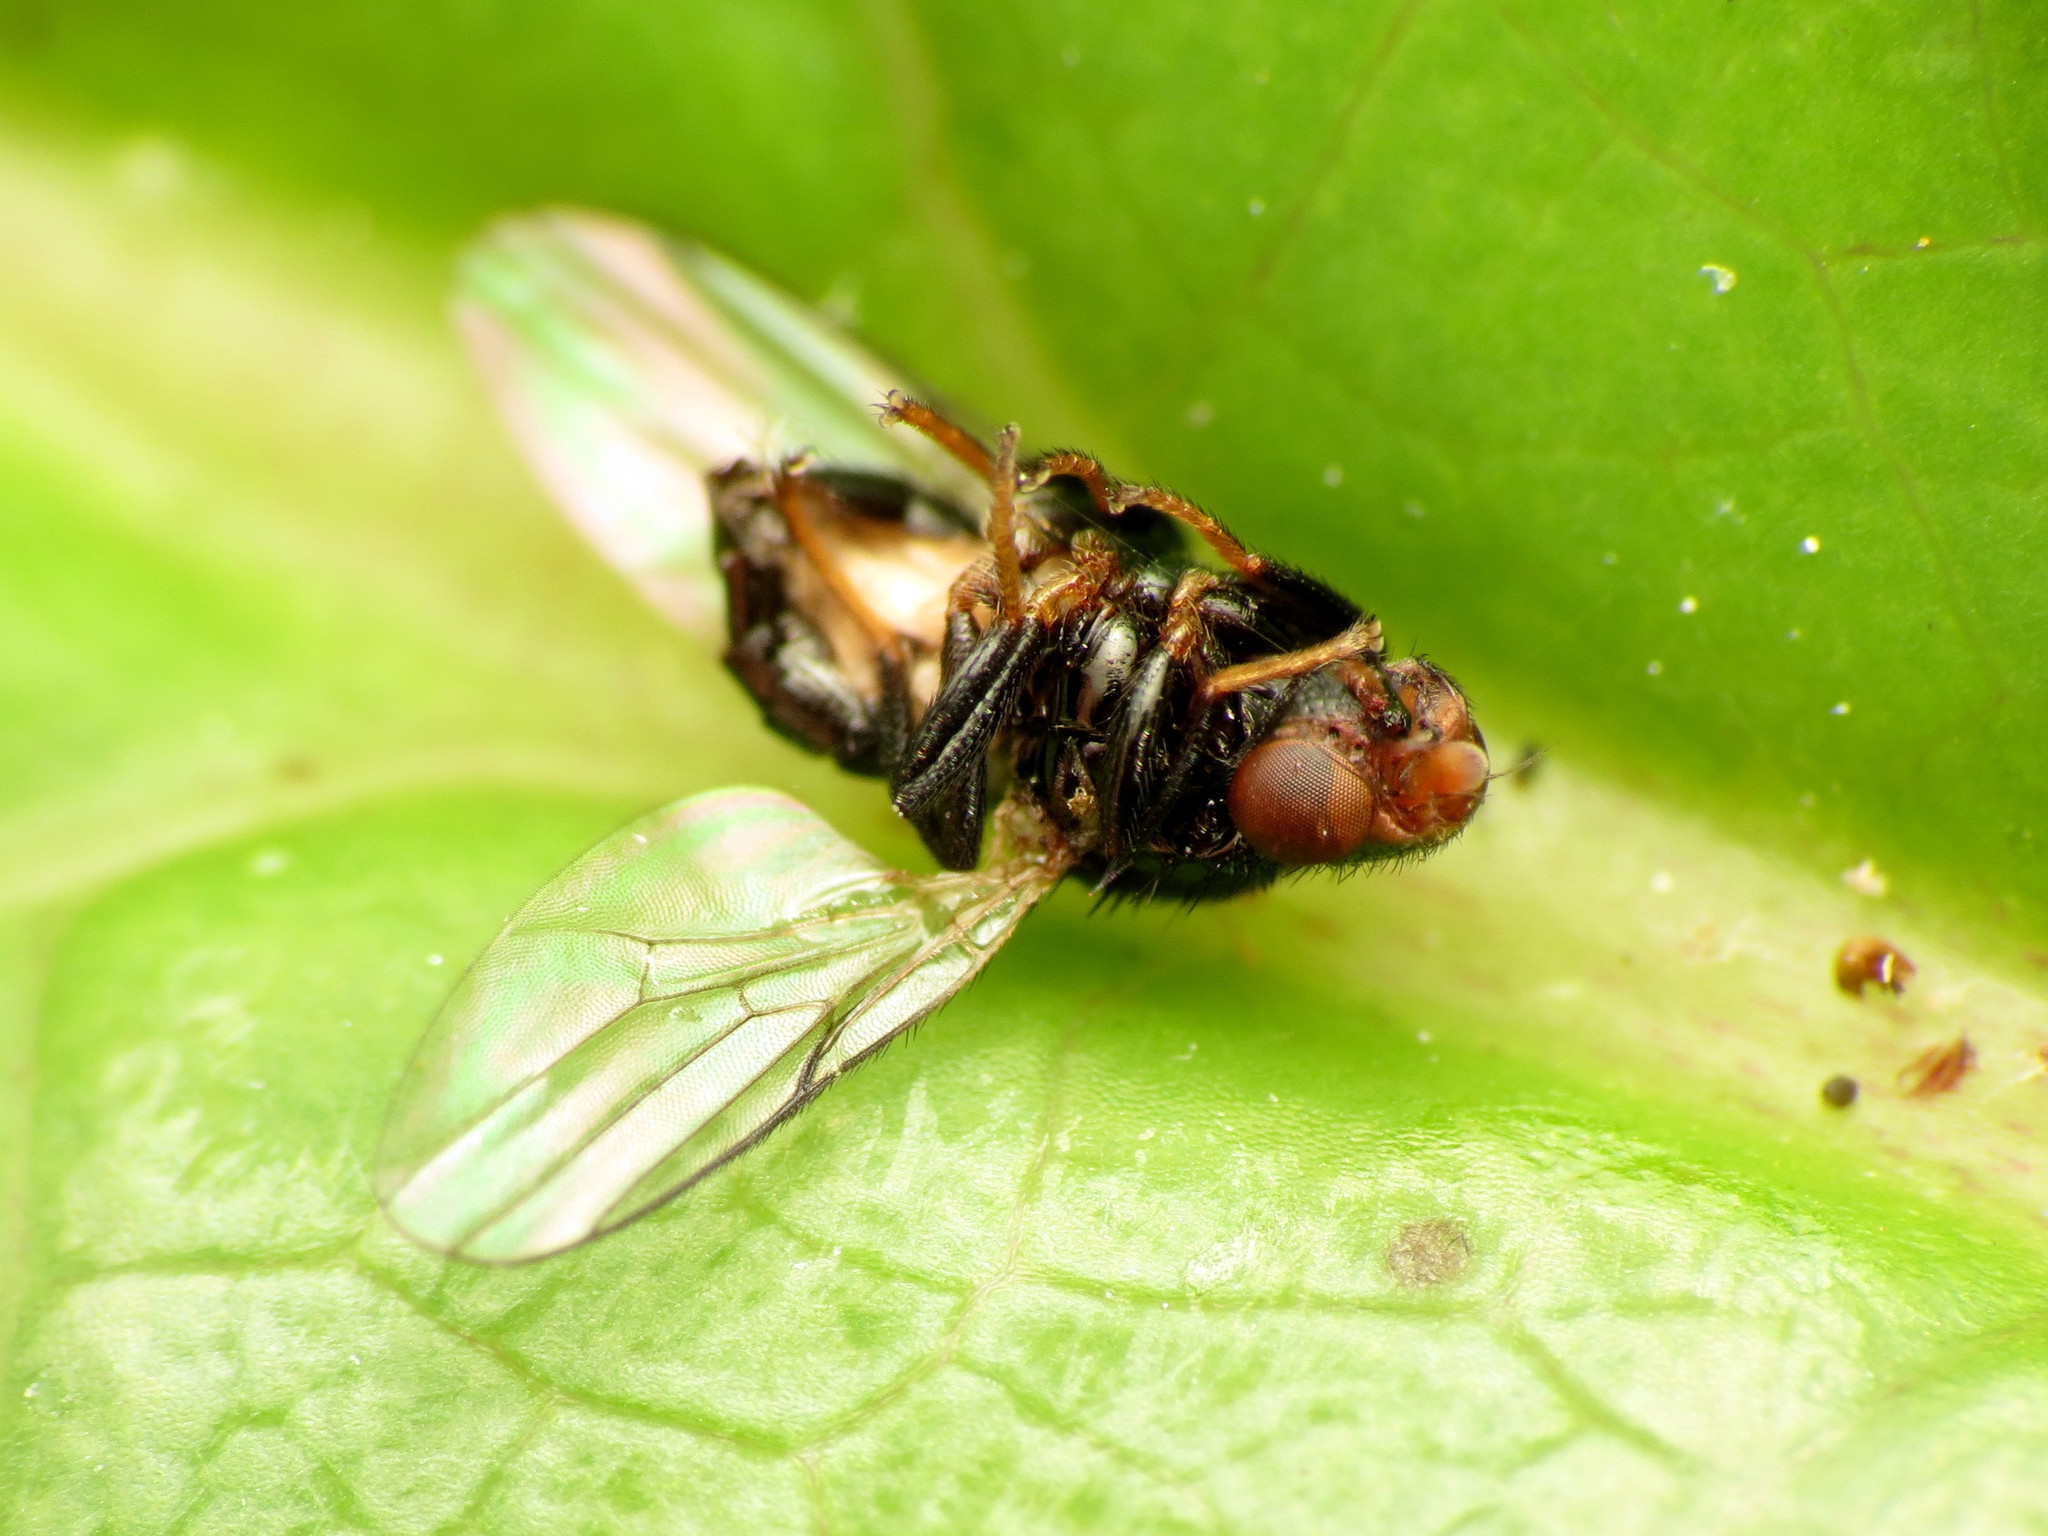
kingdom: Animalia
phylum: Arthropoda
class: Insecta
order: Diptera
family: Chloropidae
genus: Chaetochlorops
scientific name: Chaetochlorops inquilinus
